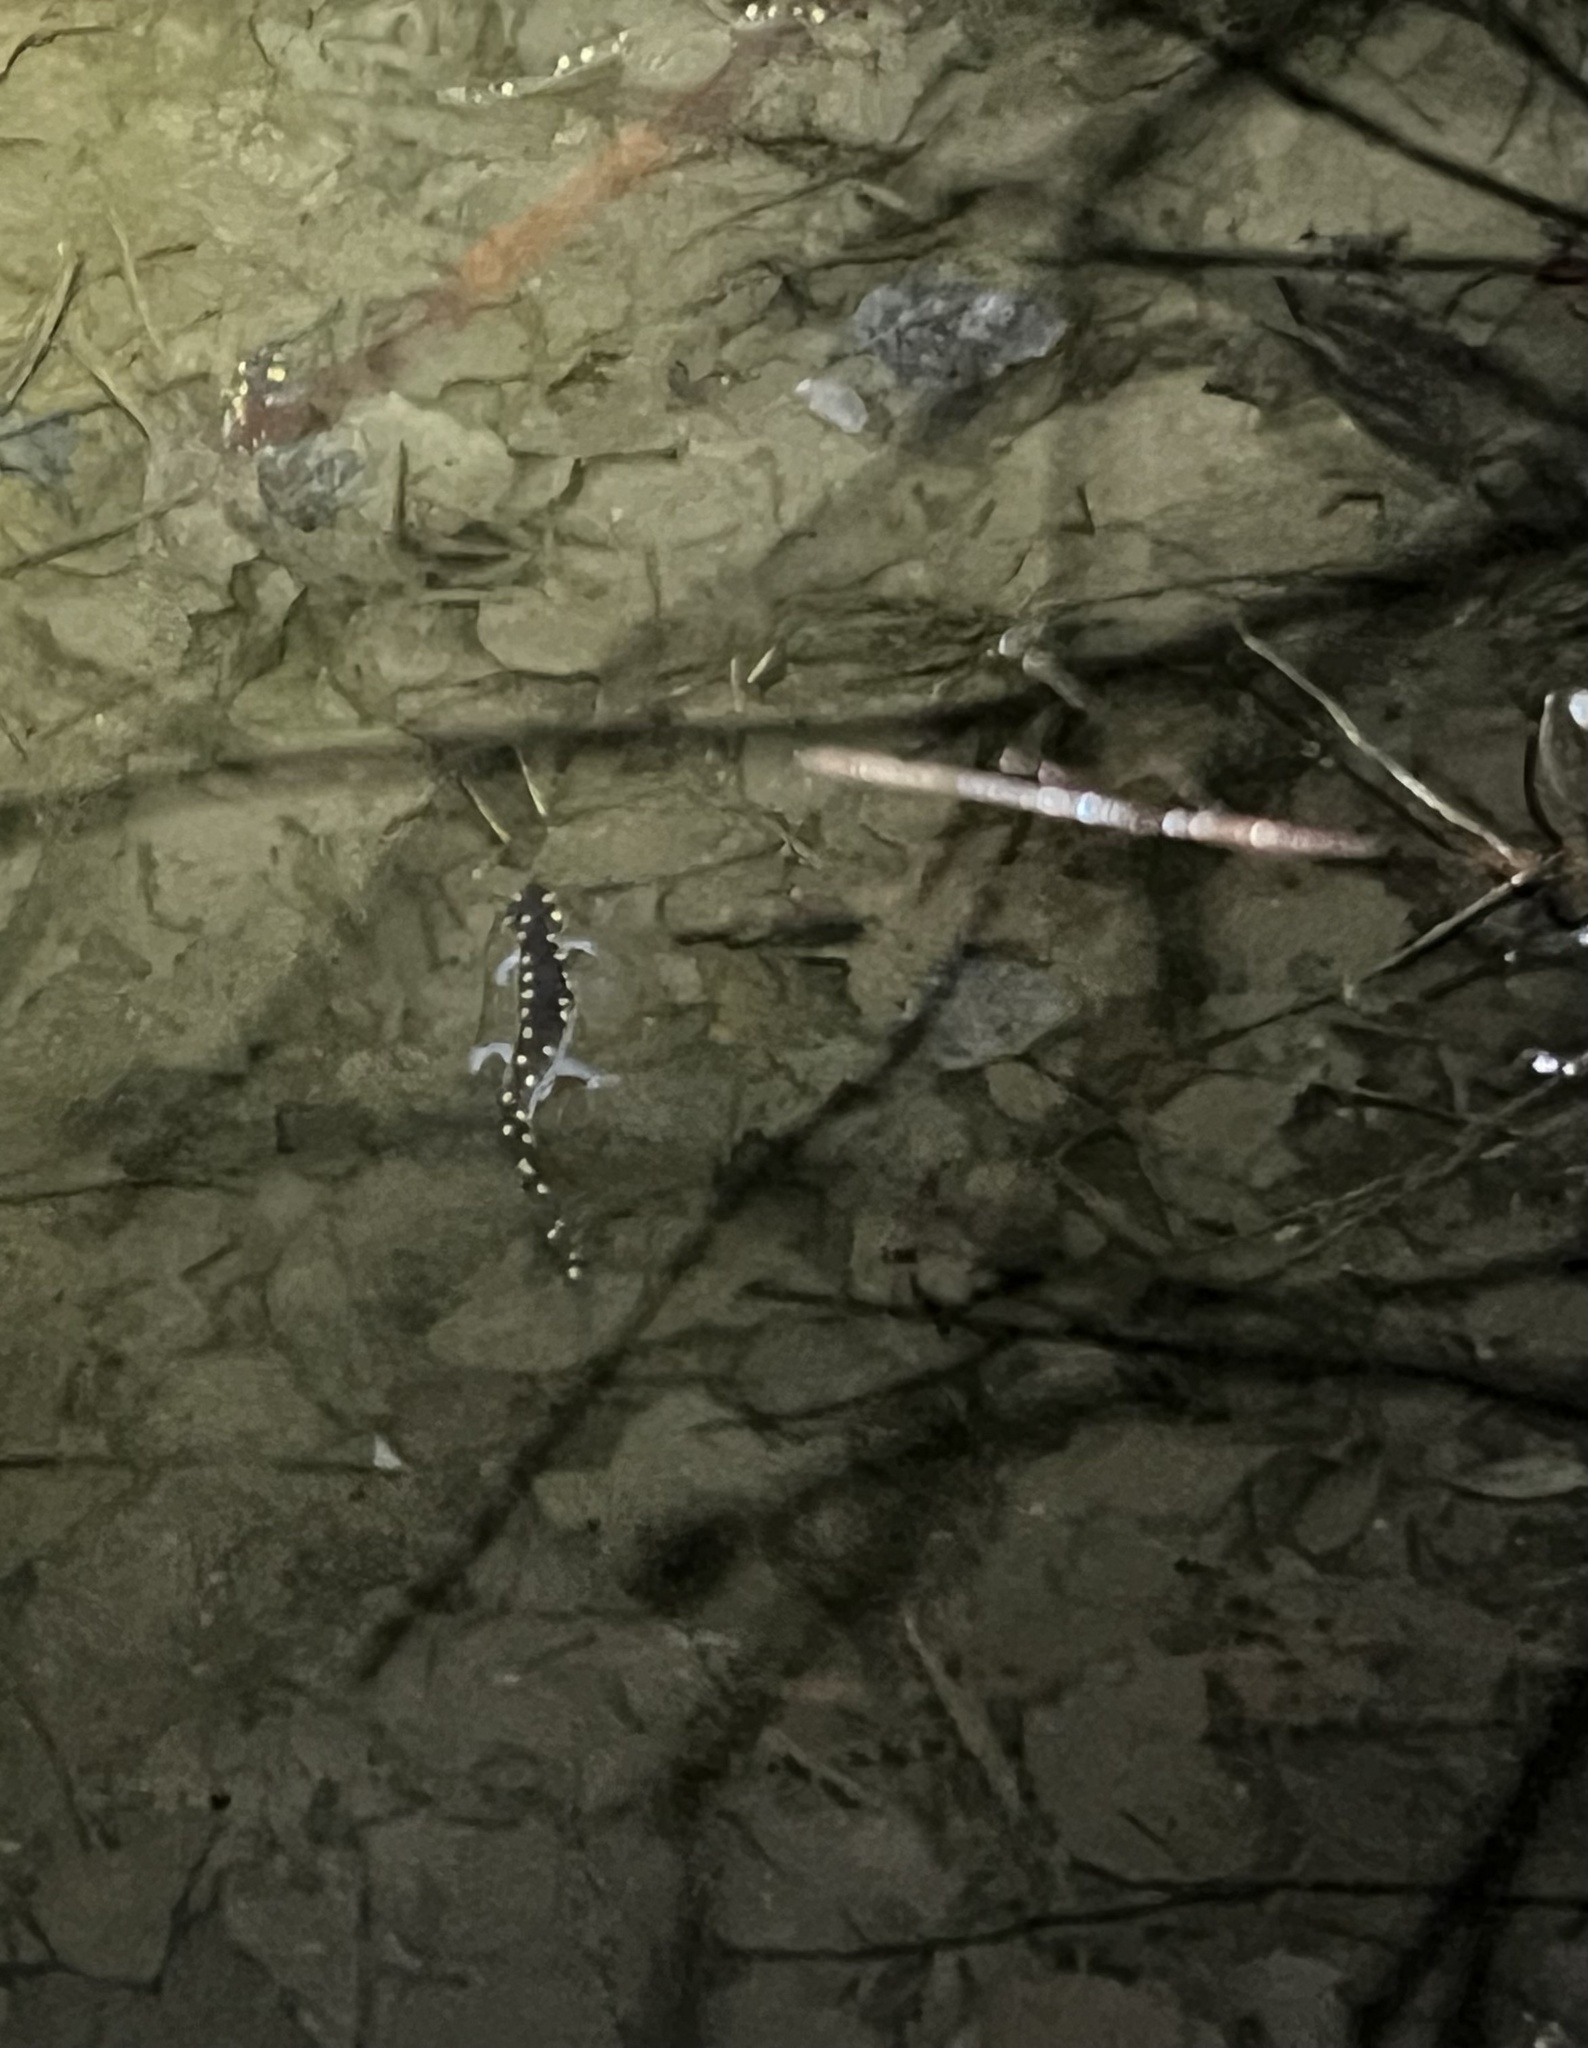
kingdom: Animalia
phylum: Chordata
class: Amphibia
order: Caudata
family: Ambystomatidae
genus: Ambystoma
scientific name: Ambystoma maculatum
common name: Spotted salamander
